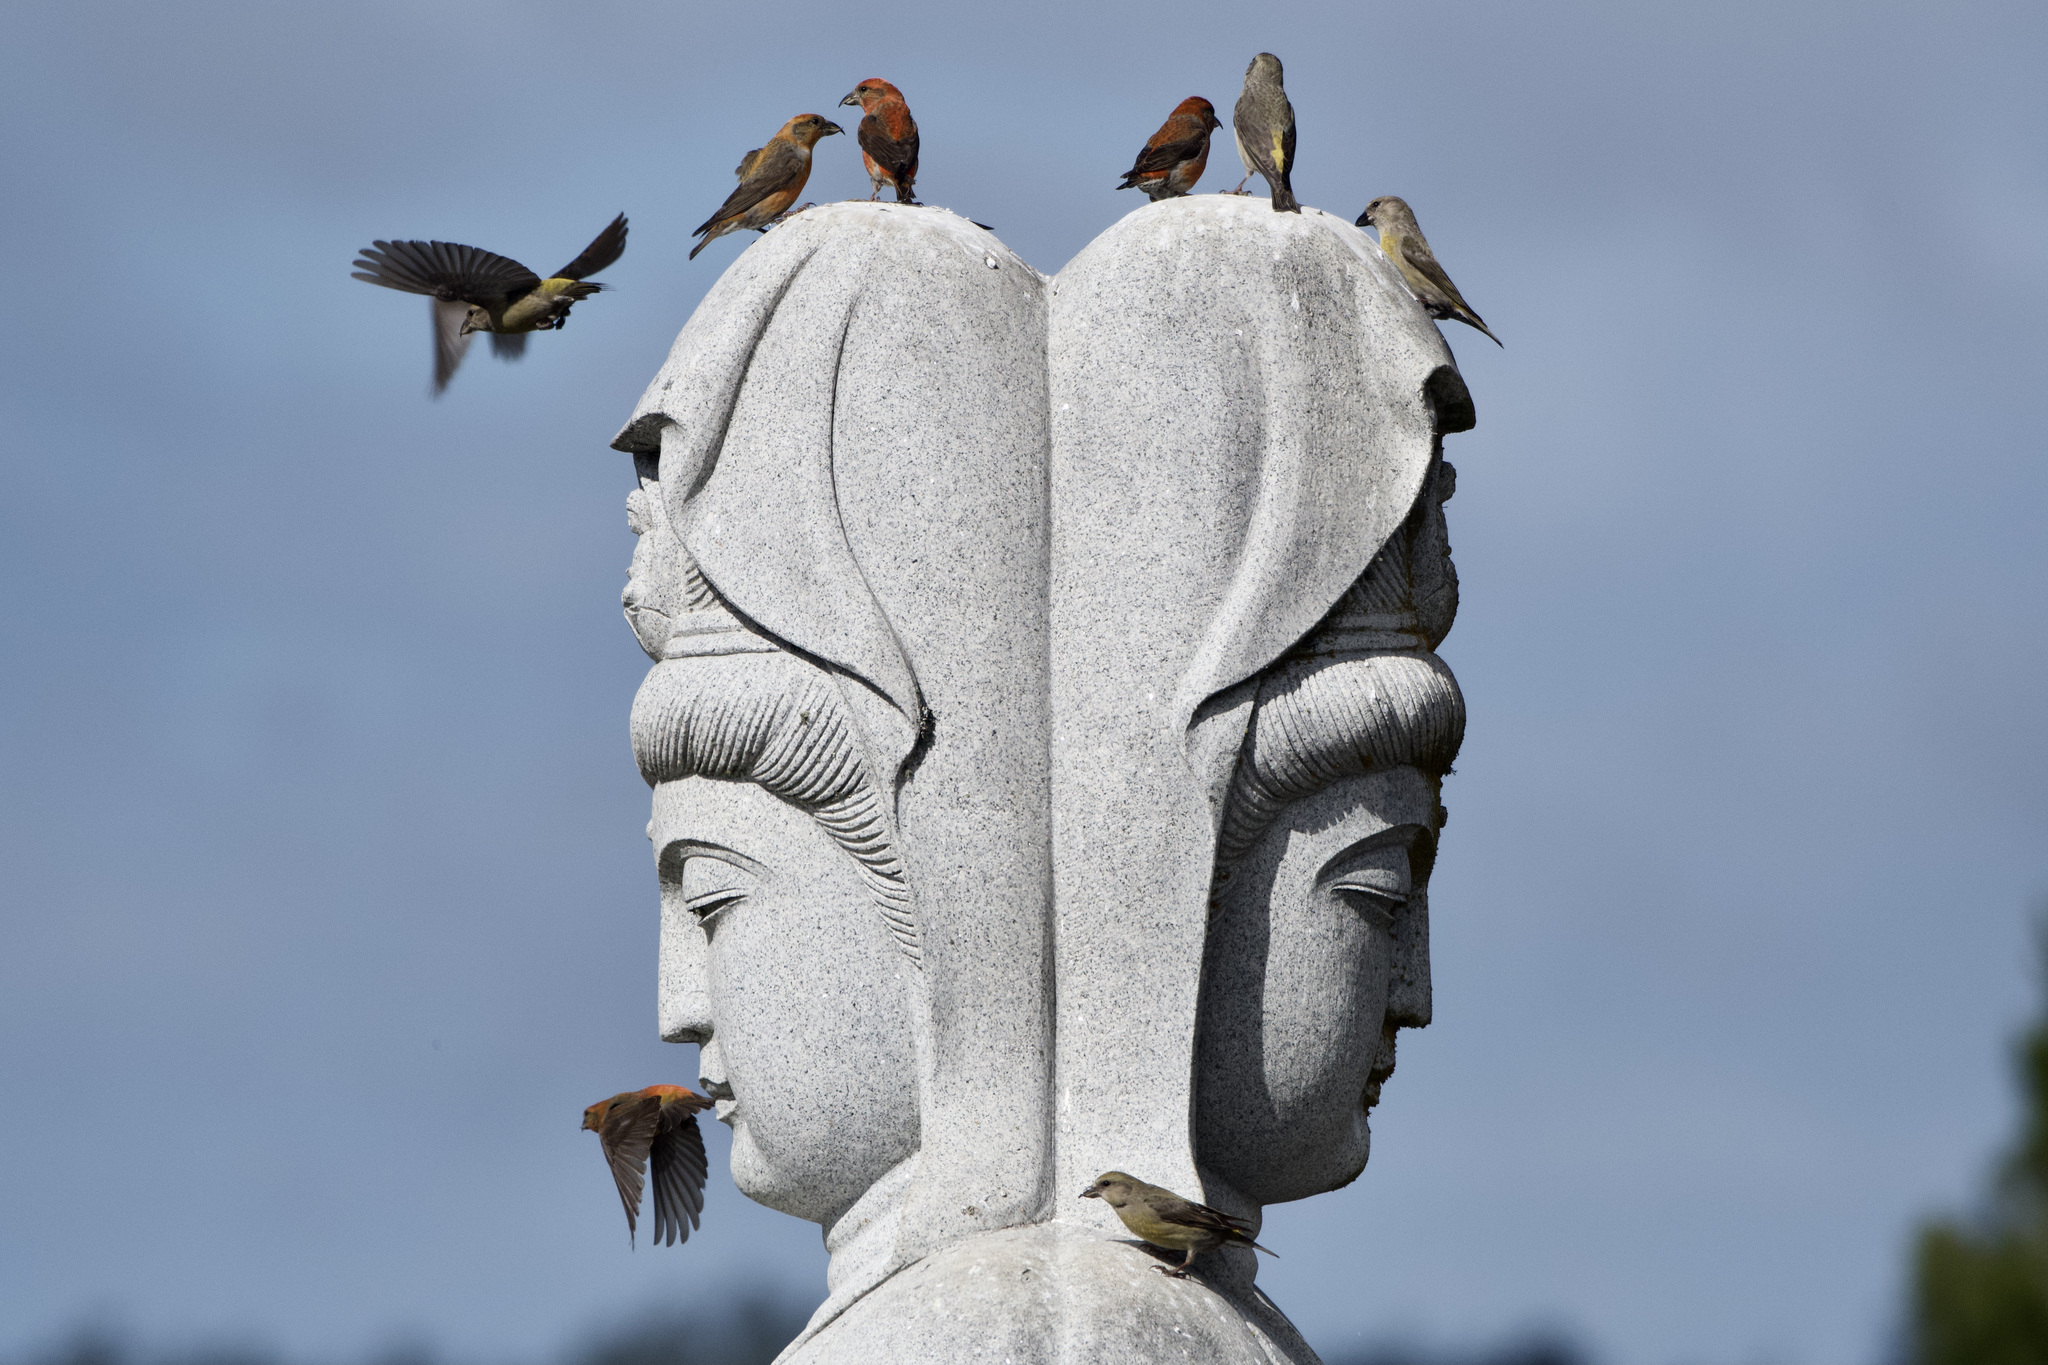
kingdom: Animalia
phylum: Chordata
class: Aves
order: Passeriformes
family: Fringillidae
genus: Loxia
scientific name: Loxia curvirostra
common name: Red crossbill
